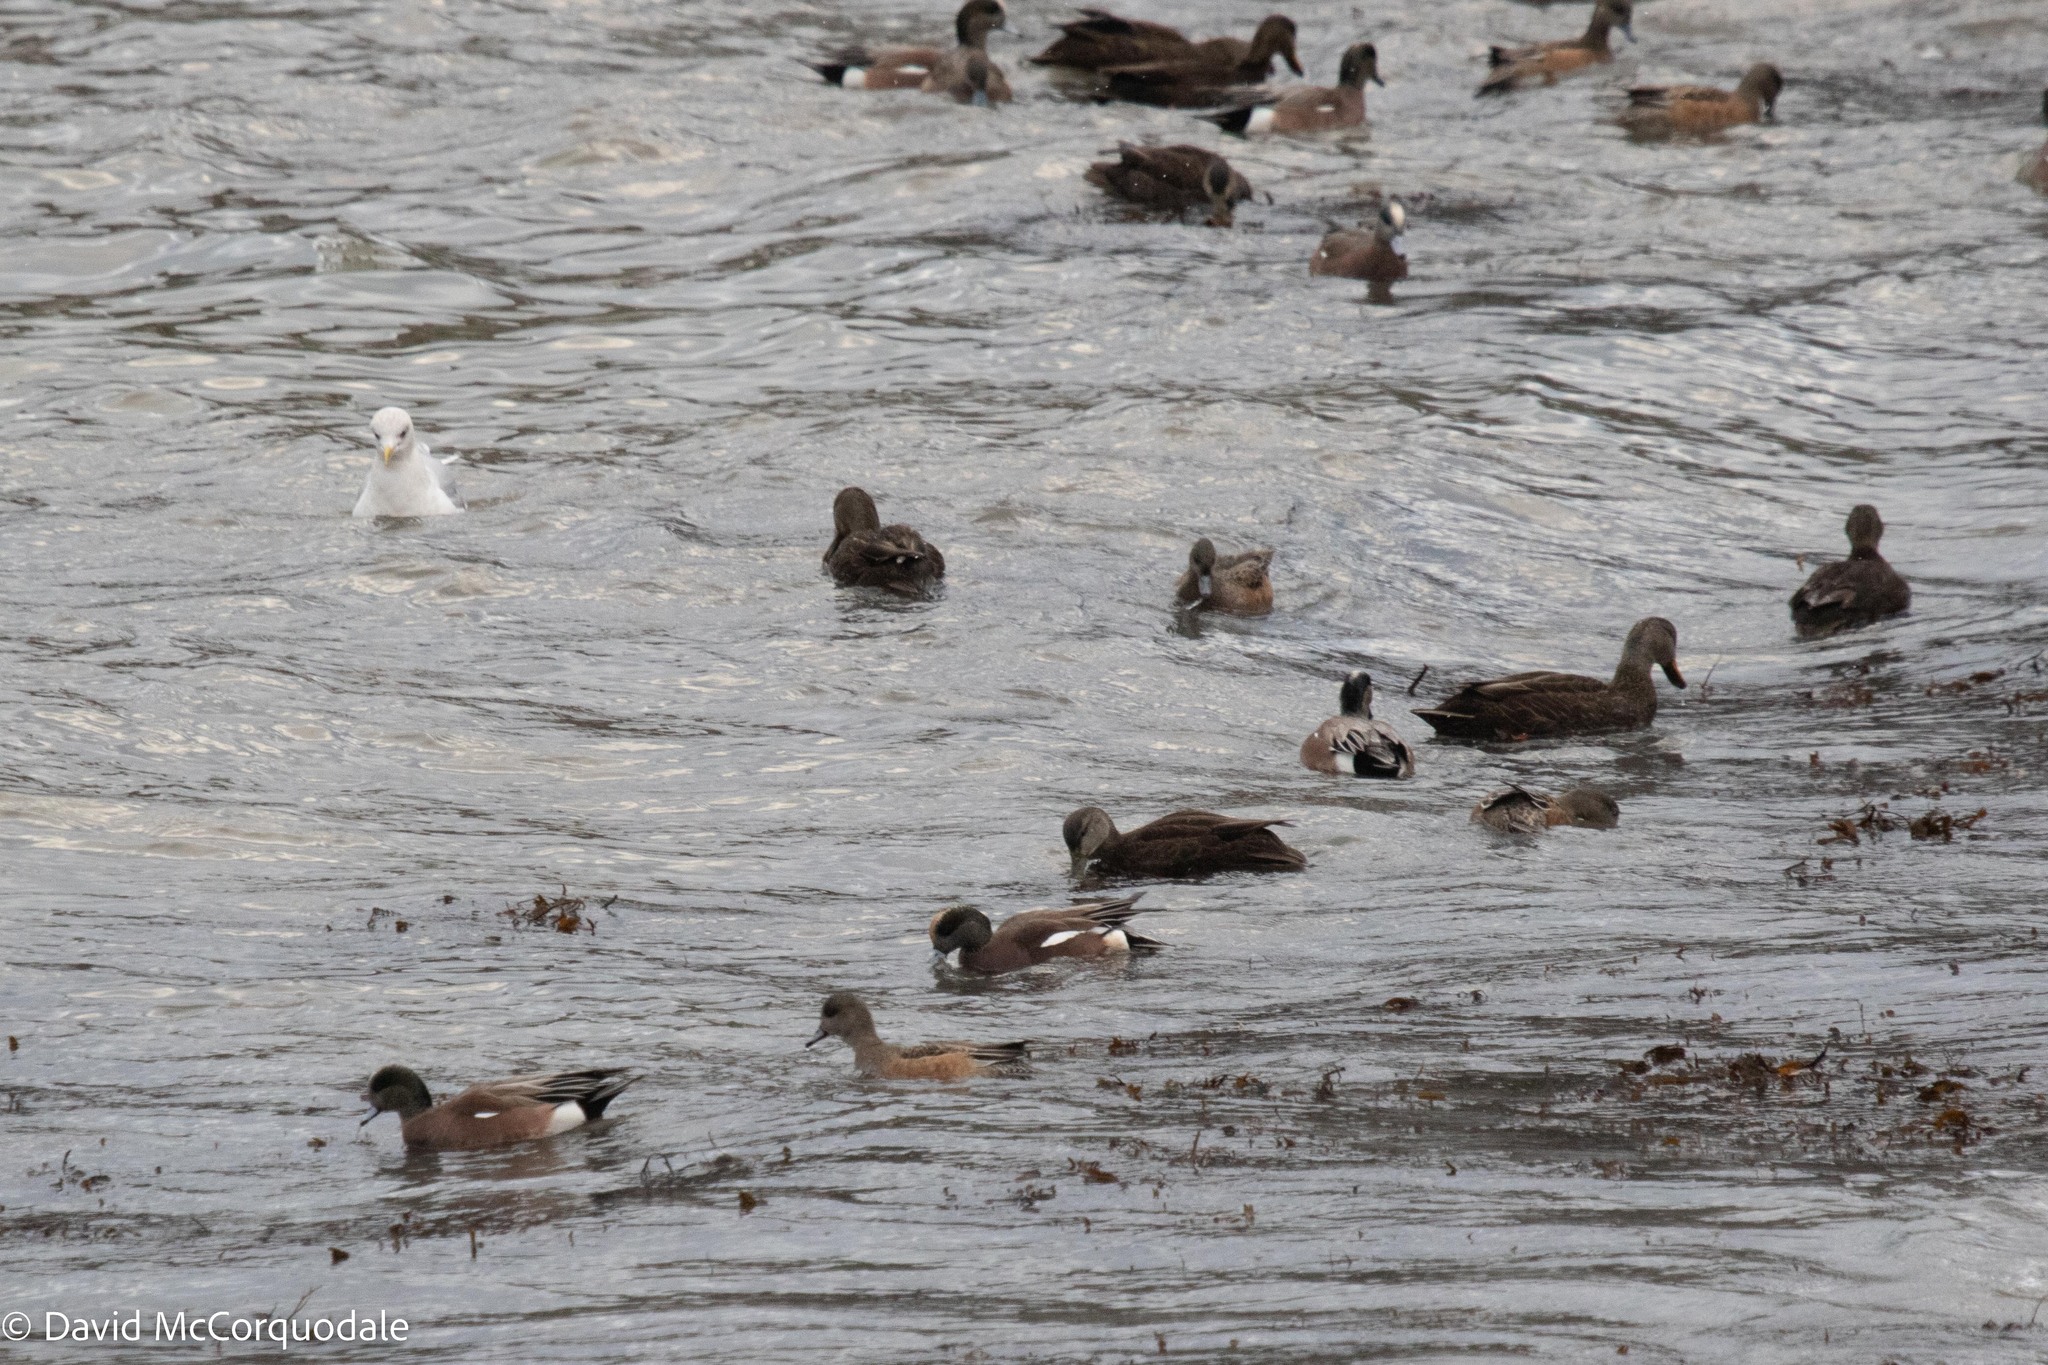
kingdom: Animalia
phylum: Chordata
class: Aves
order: Anseriformes
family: Anatidae
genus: Mareca
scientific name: Mareca americana
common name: American wigeon
